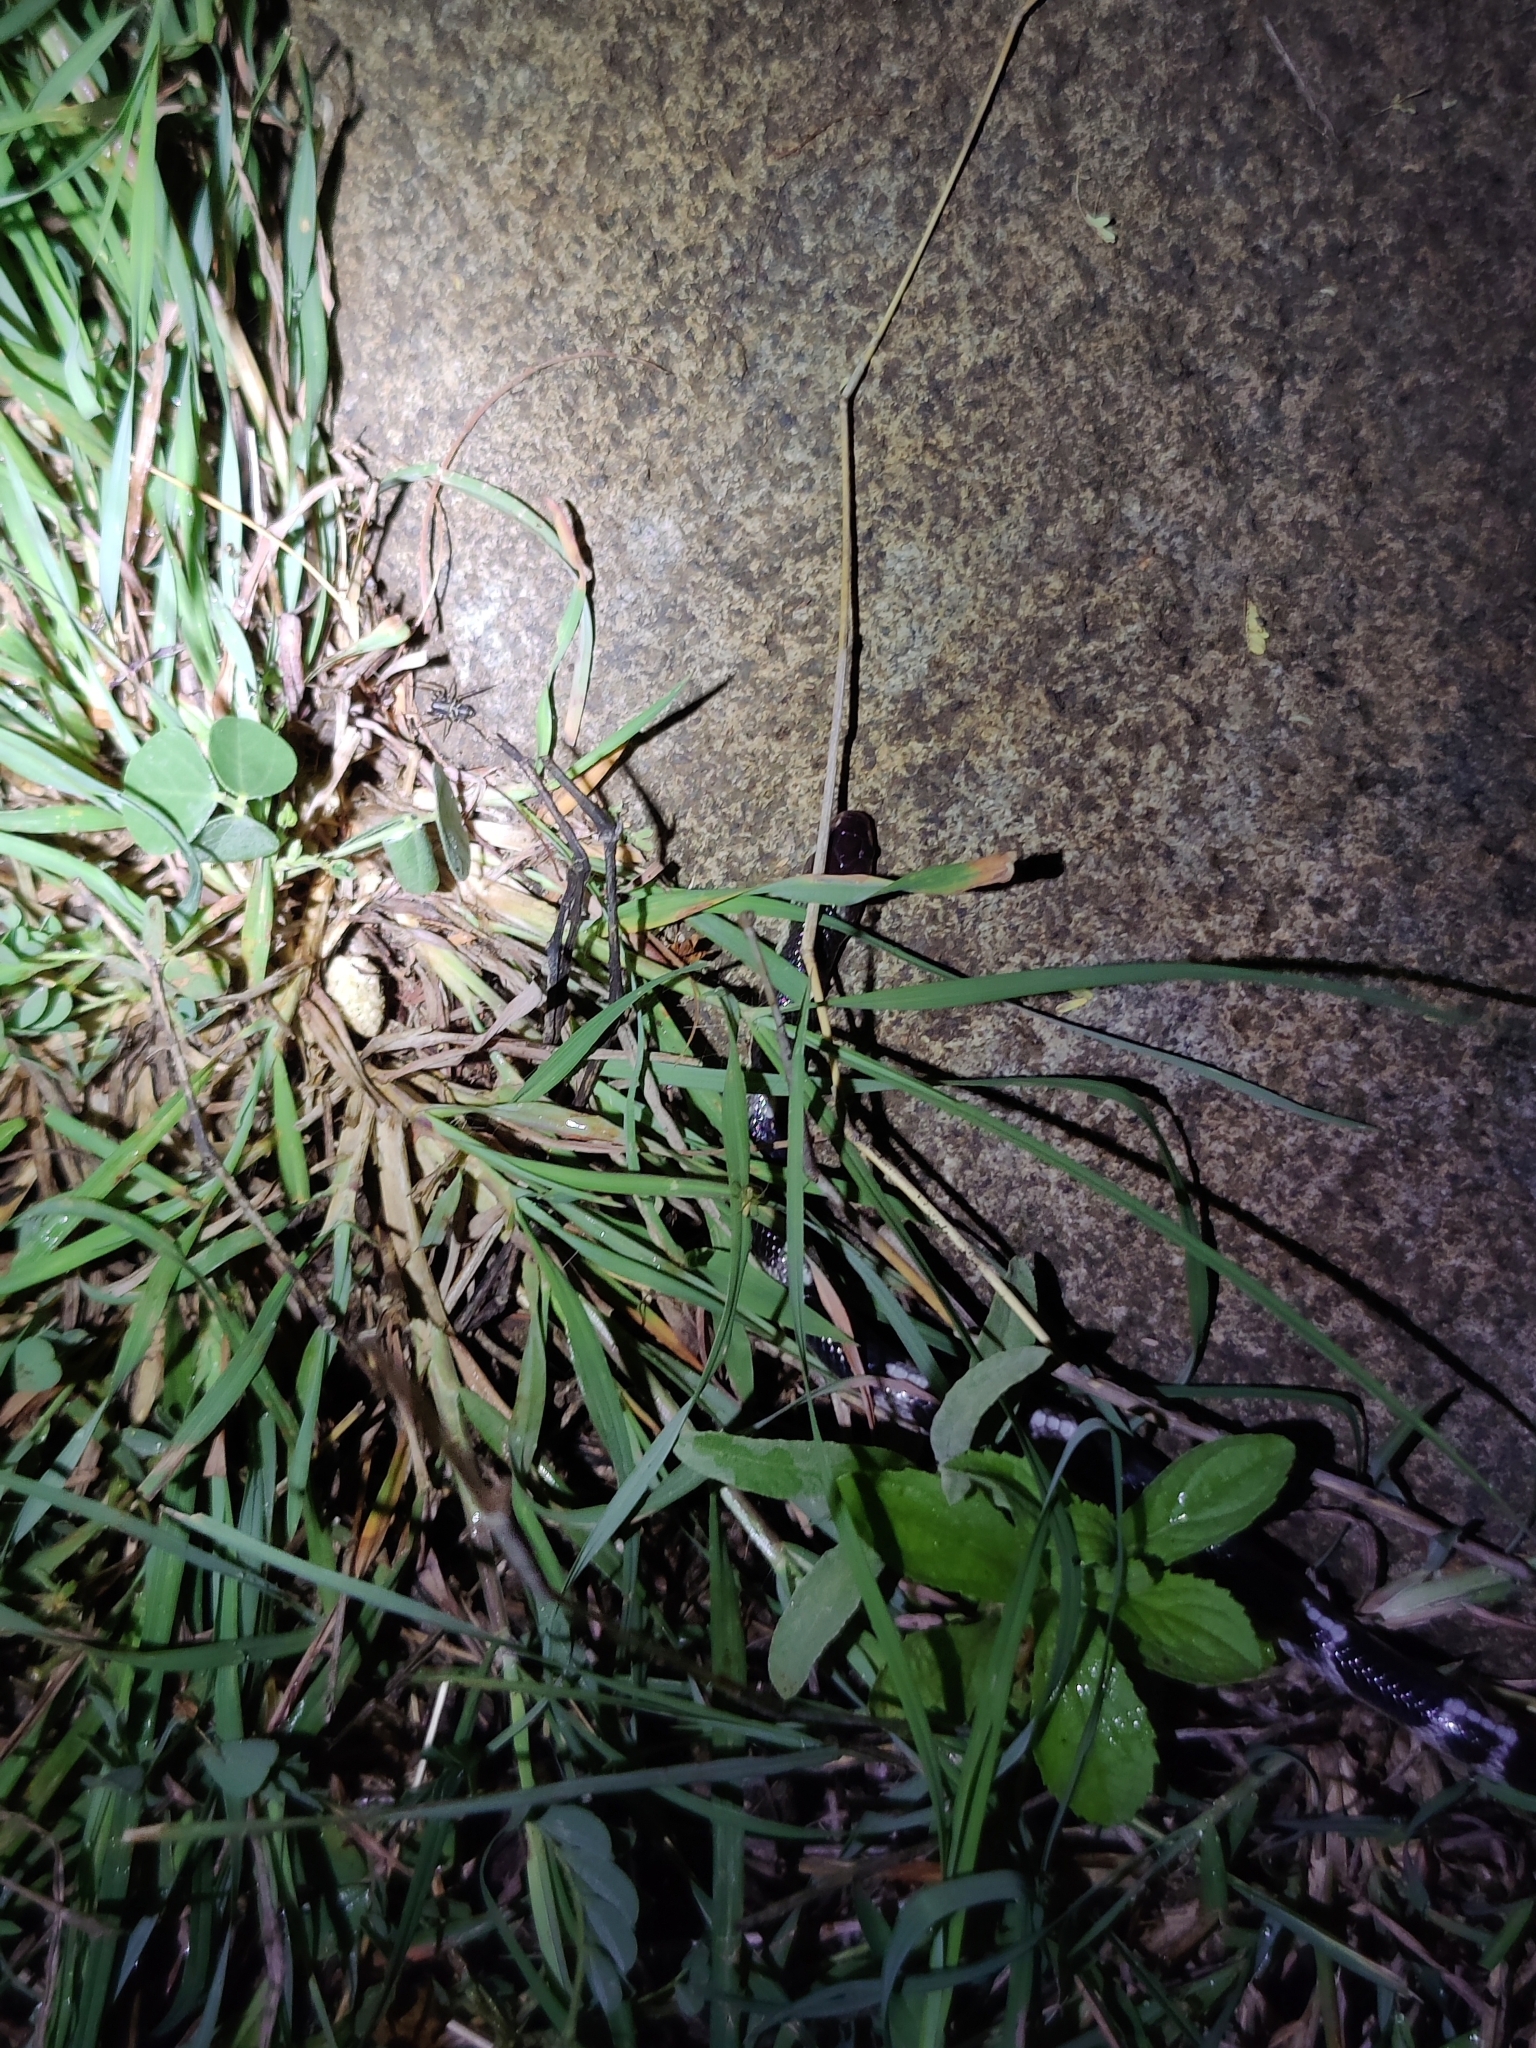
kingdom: Animalia
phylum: Chordata
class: Squamata
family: Elapidae
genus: Bungarus
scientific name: Bungarus caeruleus
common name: Common krait
